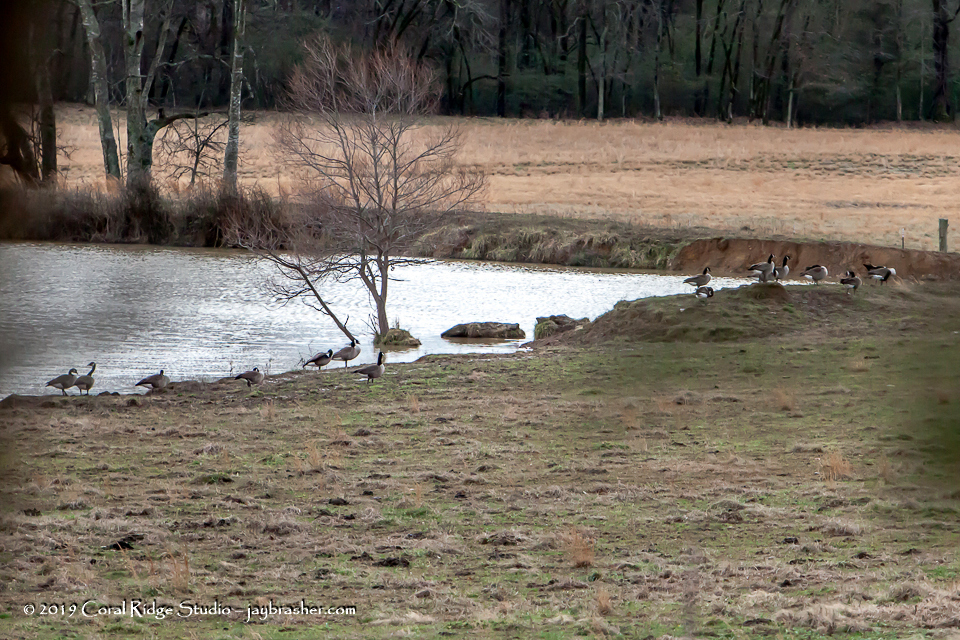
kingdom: Animalia
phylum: Chordata
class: Aves
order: Anseriformes
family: Anatidae
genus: Branta
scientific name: Branta canadensis
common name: Canada goose
